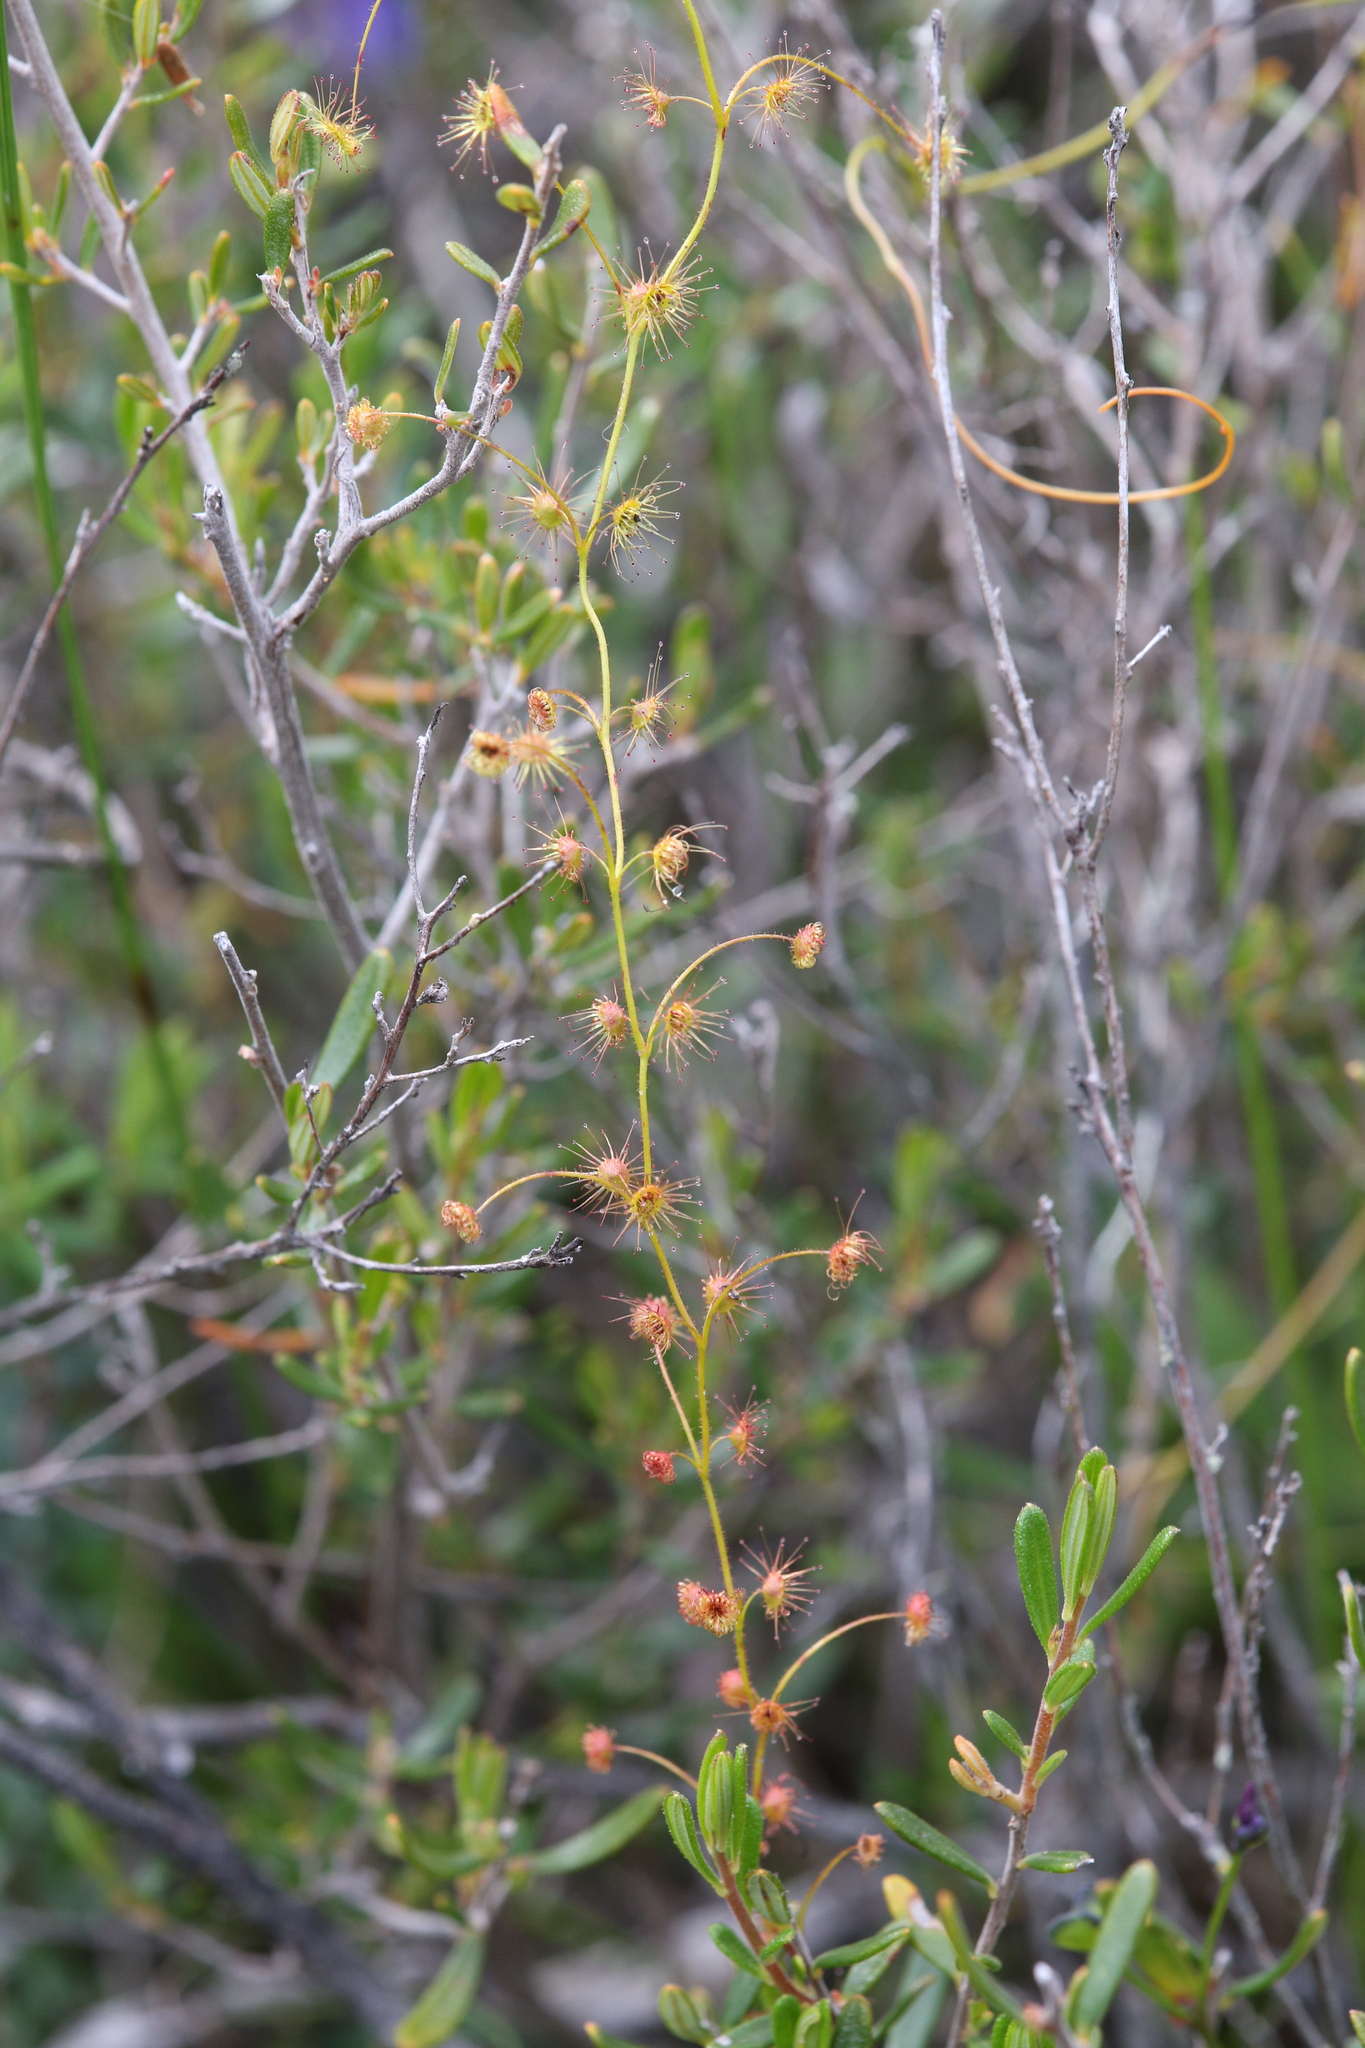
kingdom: Plantae
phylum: Tracheophyta
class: Magnoliopsida
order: Caryophyllales
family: Droseraceae
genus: Drosera
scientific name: Drosera subhirtella
